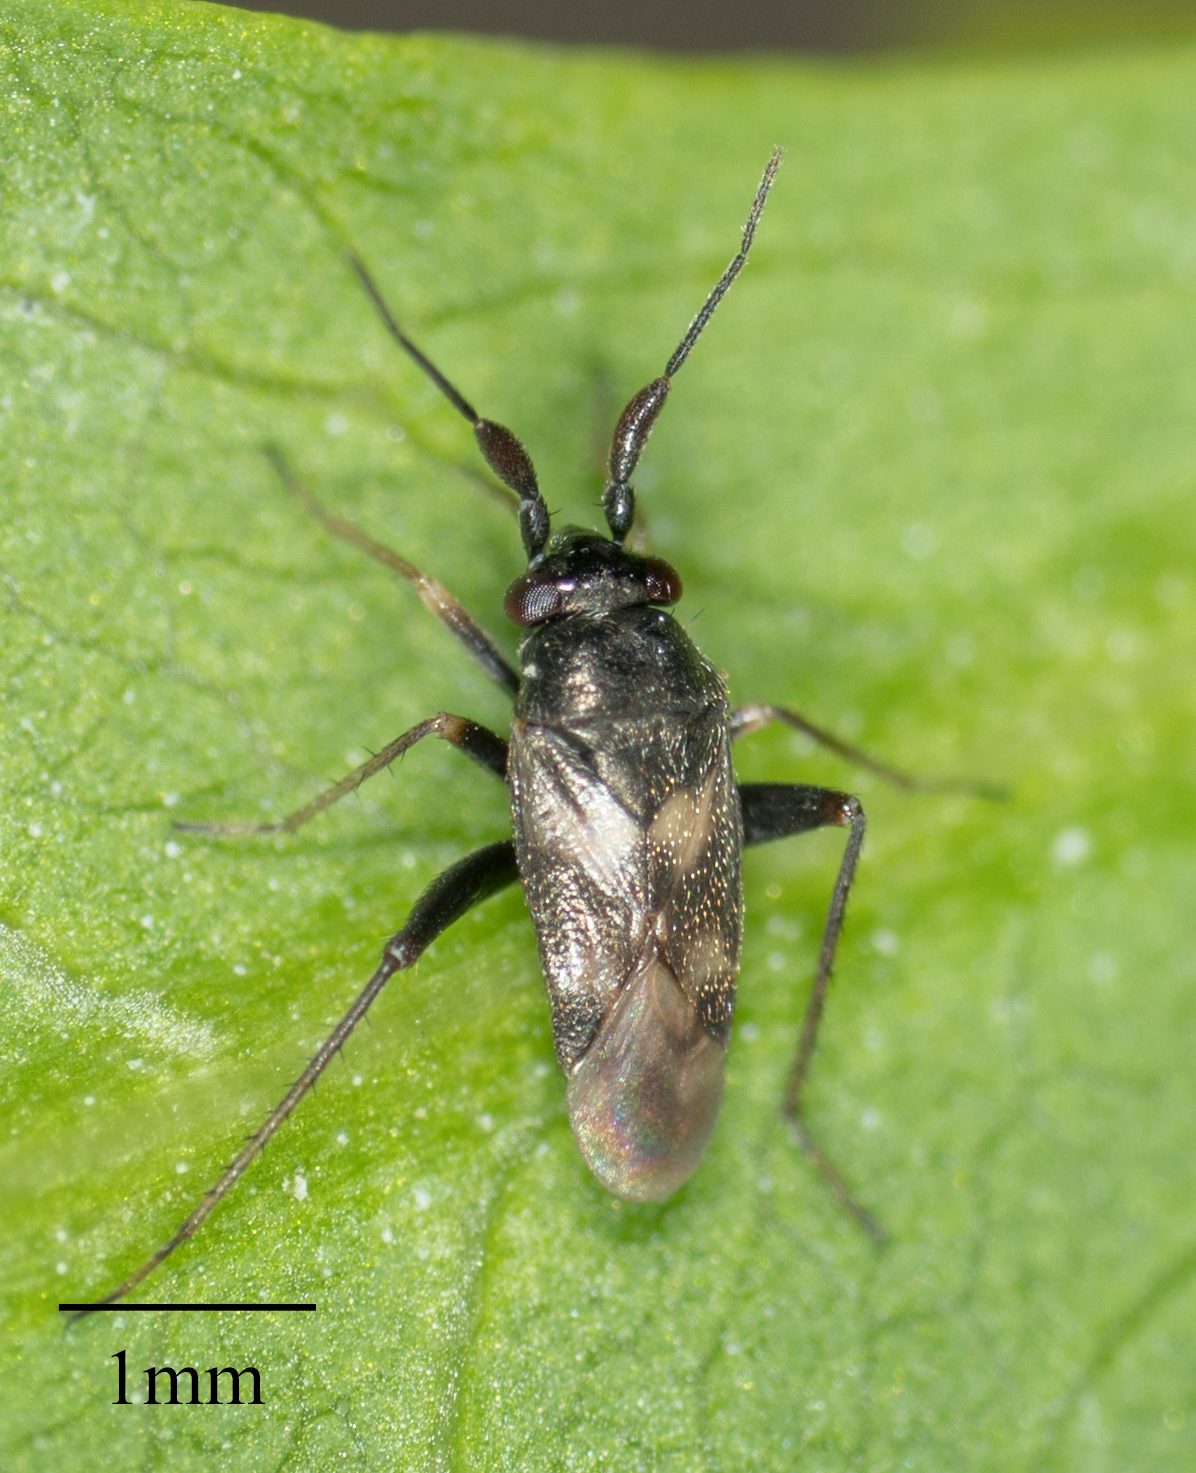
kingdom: Animalia
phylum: Arthropoda
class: Insecta
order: Hemiptera
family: Miridae
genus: Spanagonicus
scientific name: Spanagonicus albofasciatus
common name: Whitemarked fleahopper
